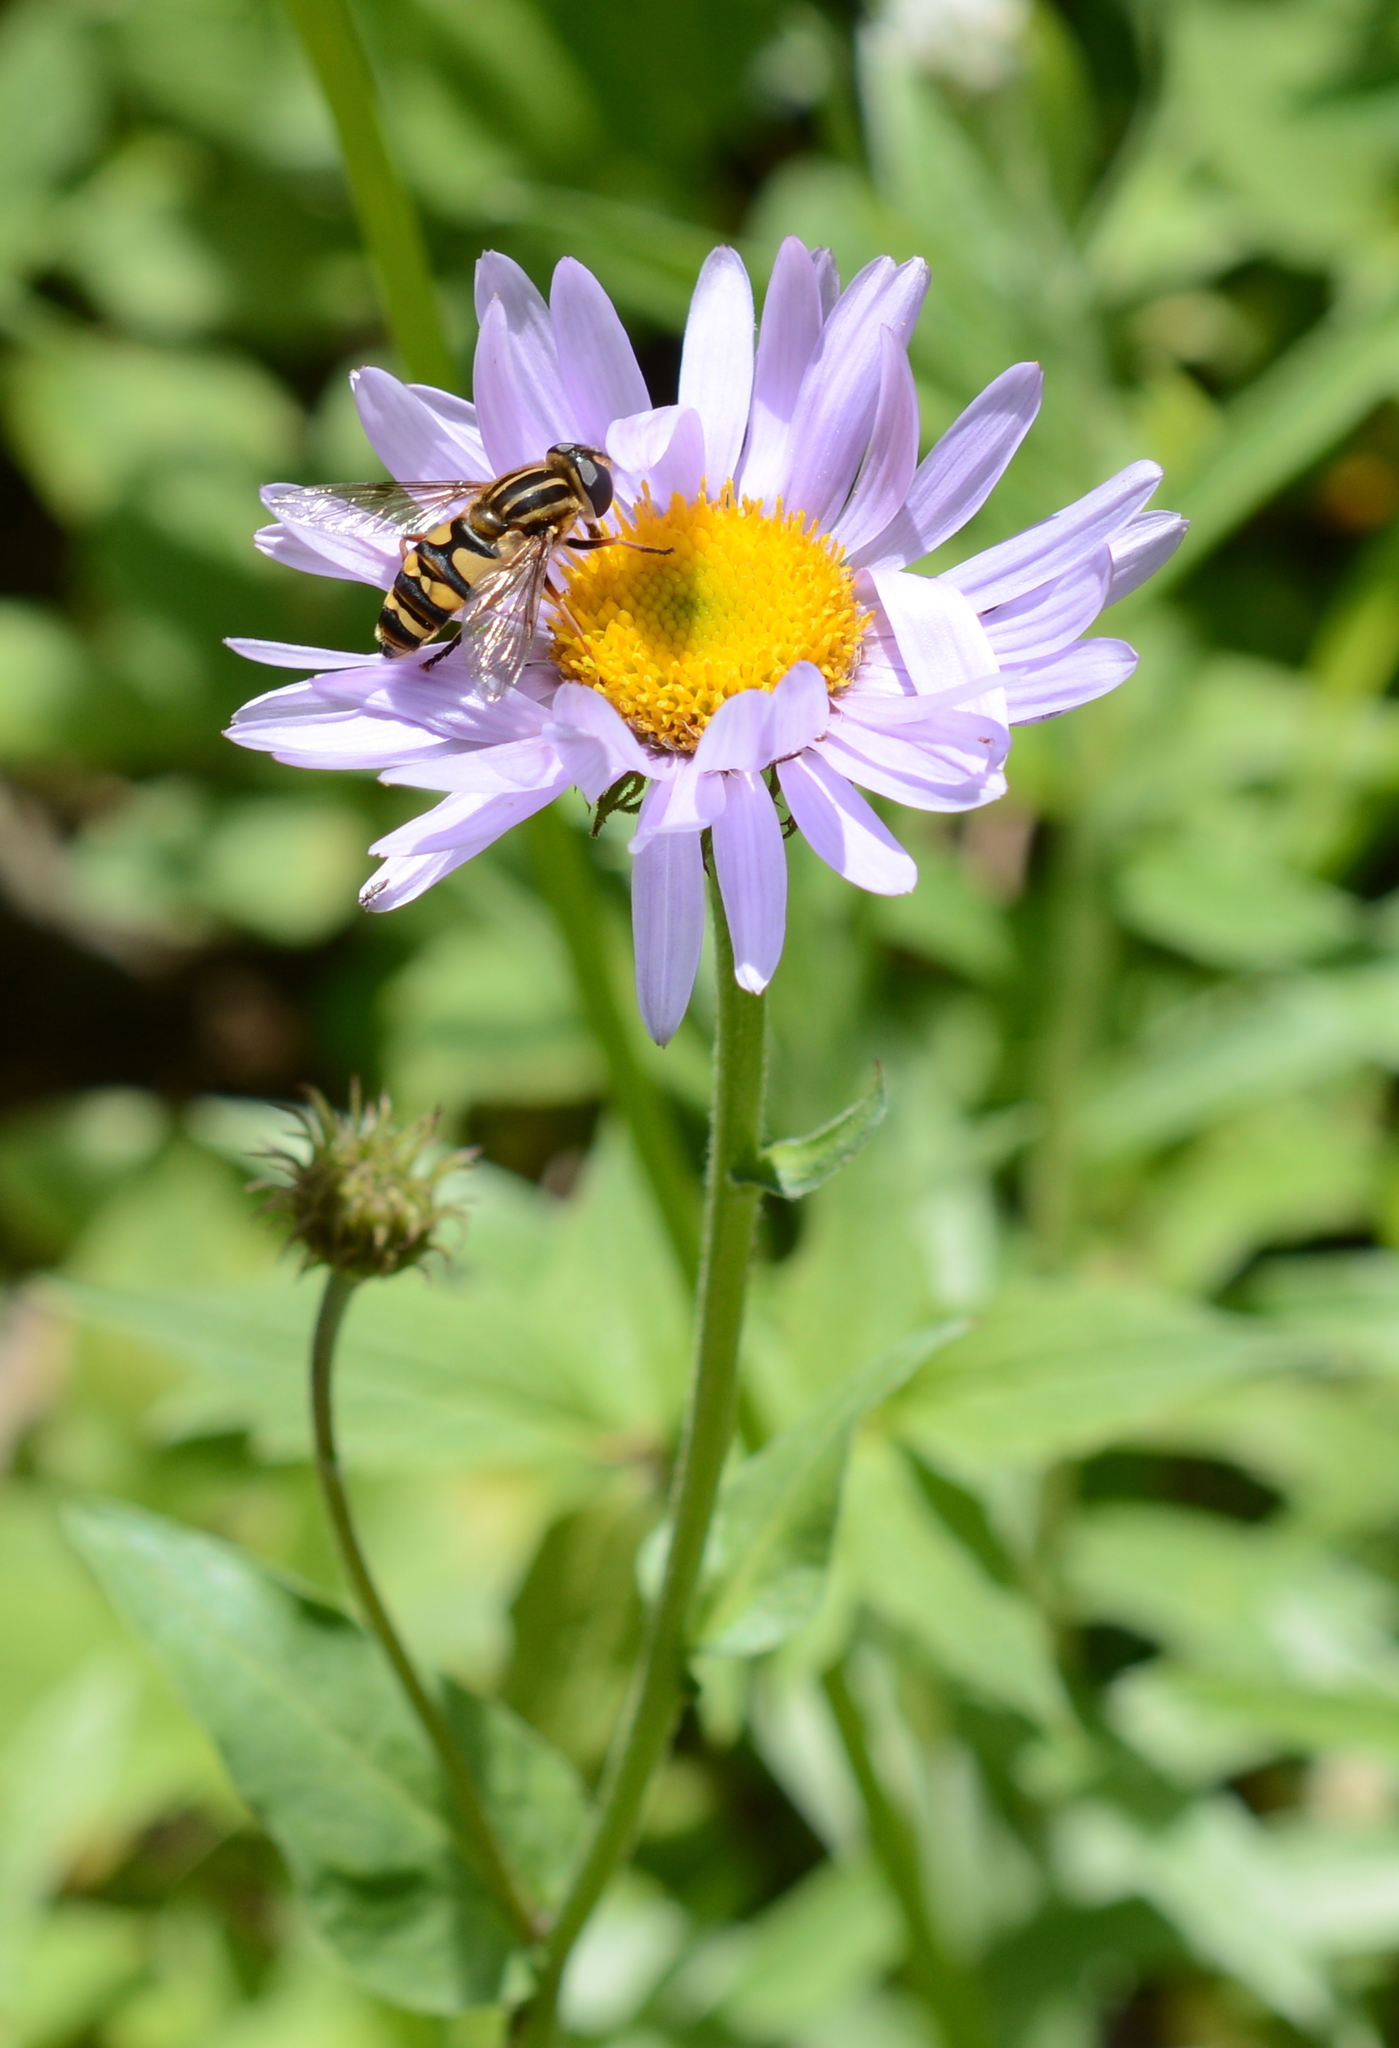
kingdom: Animalia
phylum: Arthropoda
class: Insecta
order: Diptera
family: Syrphidae
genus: Helophilus
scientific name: Helophilus fasciatus
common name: Narrow-headed marsh fly
